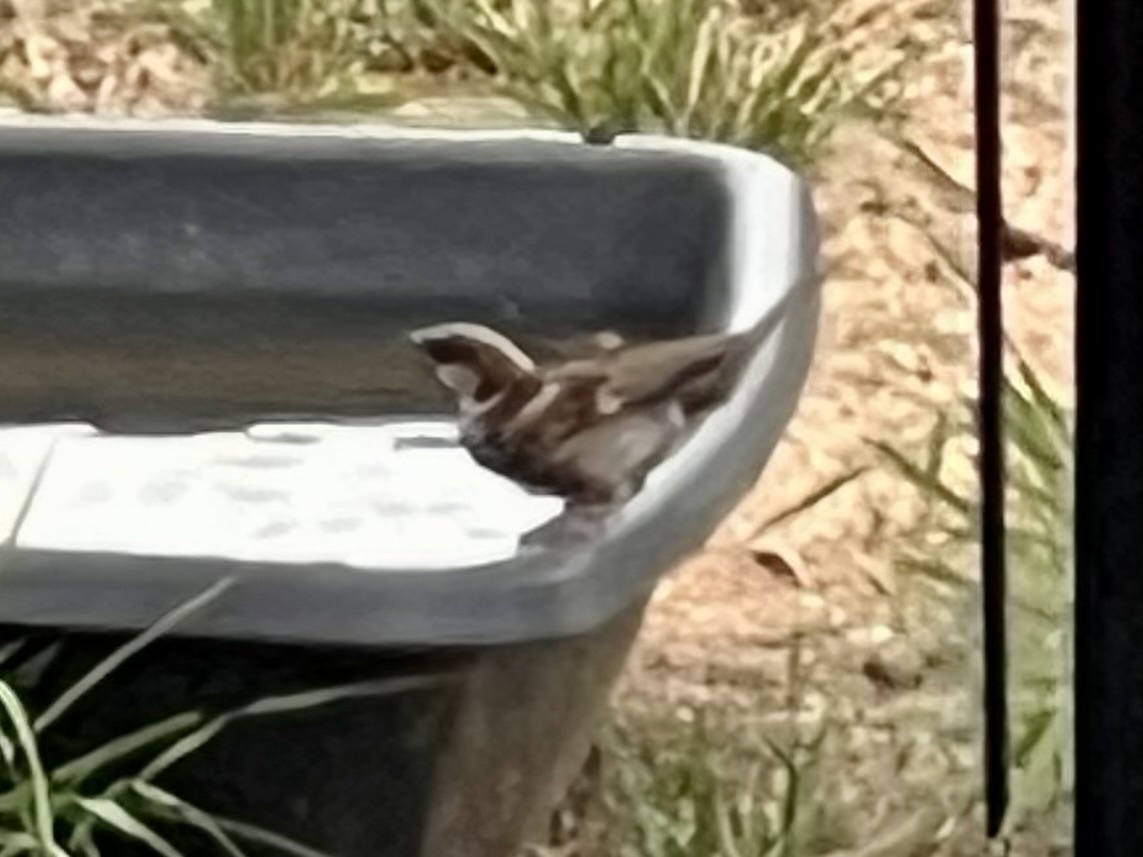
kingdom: Animalia
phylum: Chordata
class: Aves
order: Passeriformes
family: Passeridae
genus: Passer
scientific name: Passer domesticus
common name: House sparrow
